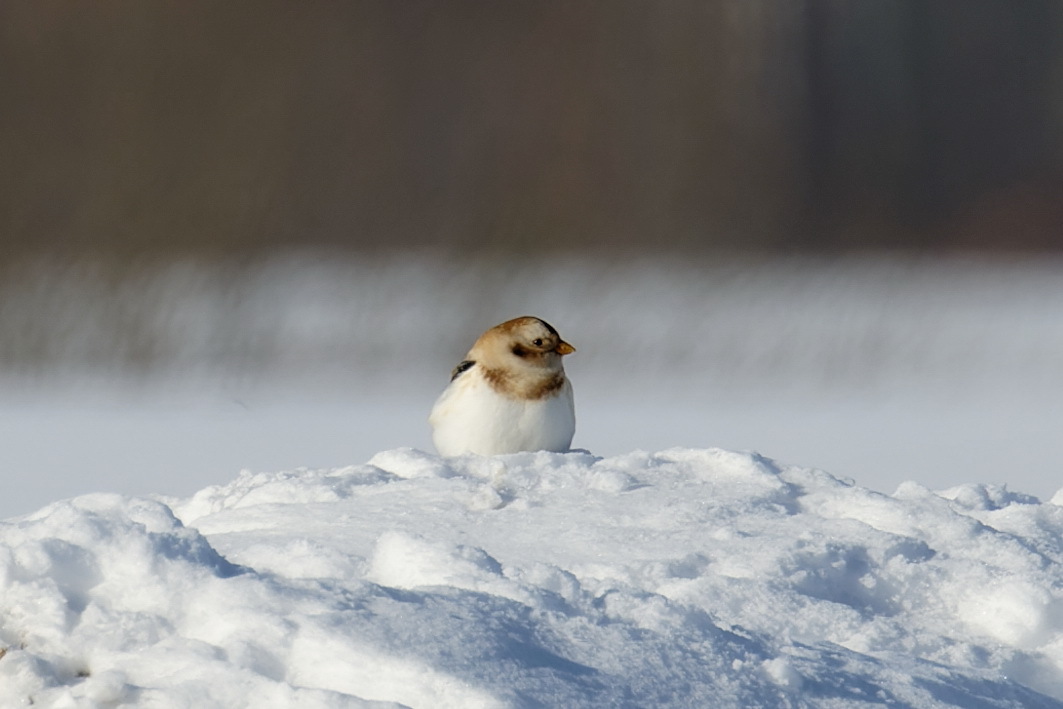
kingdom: Animalia
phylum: Chordata
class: Aves
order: Passeriformes
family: Calcariidae
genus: Plectrophenax
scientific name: Plectrophenax nivalis
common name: Snow bunting
